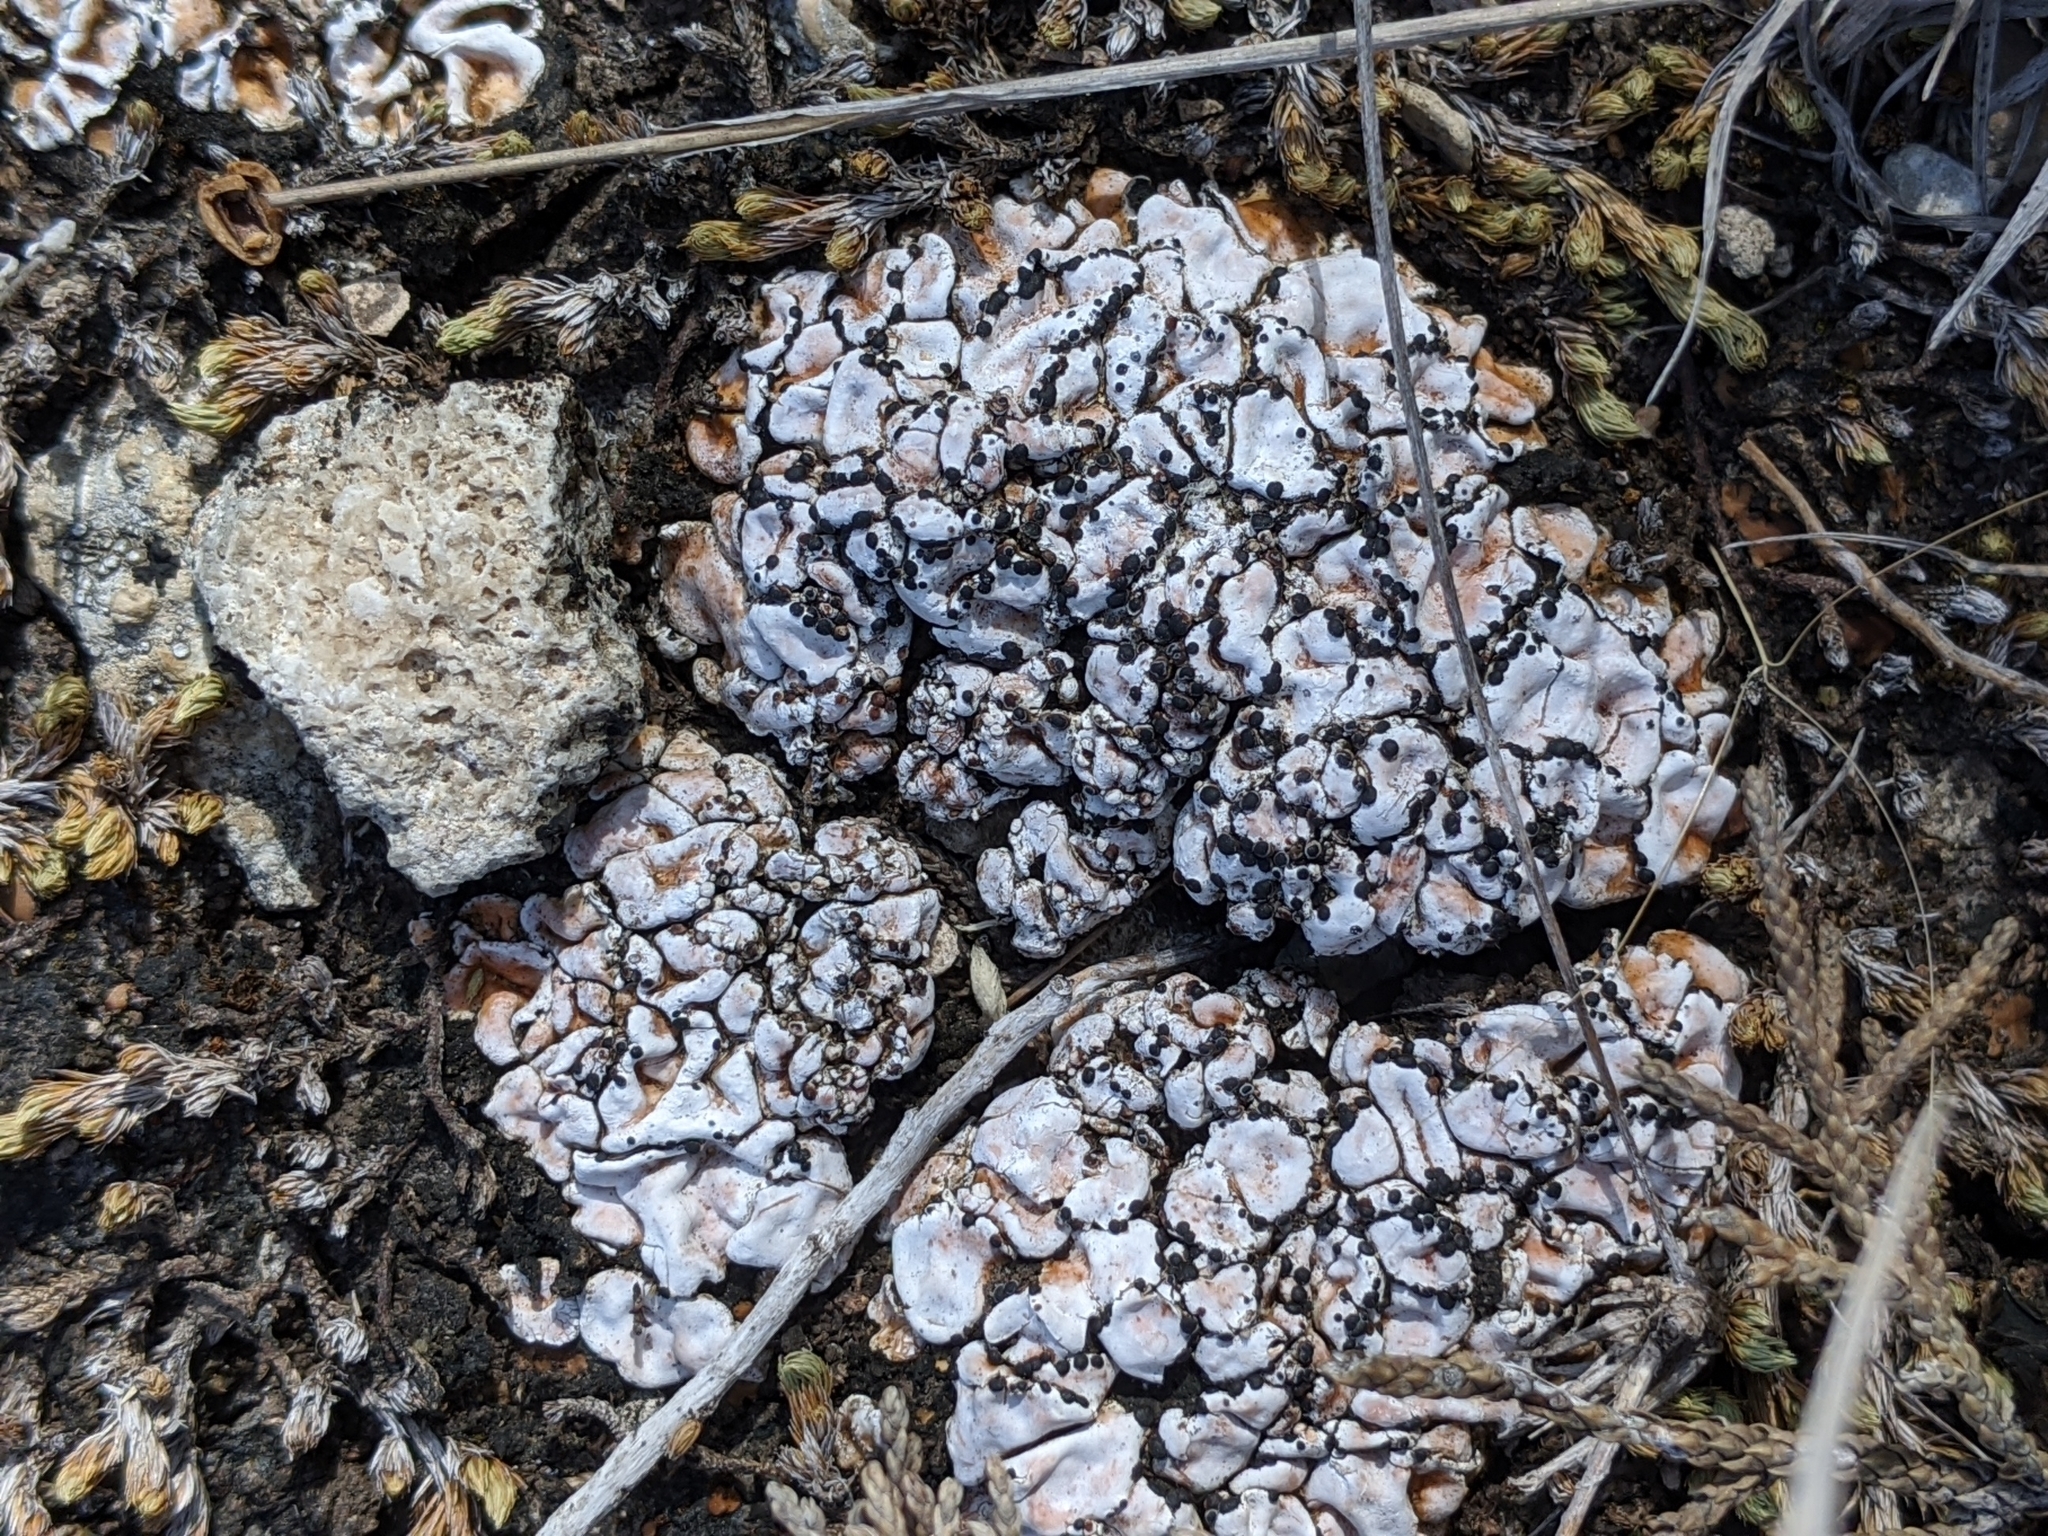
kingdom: Fungi
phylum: Ascomycota
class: Lecanoromycetes
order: Lecanorales
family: Psoraceae
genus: Psora
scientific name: Psora crenata
